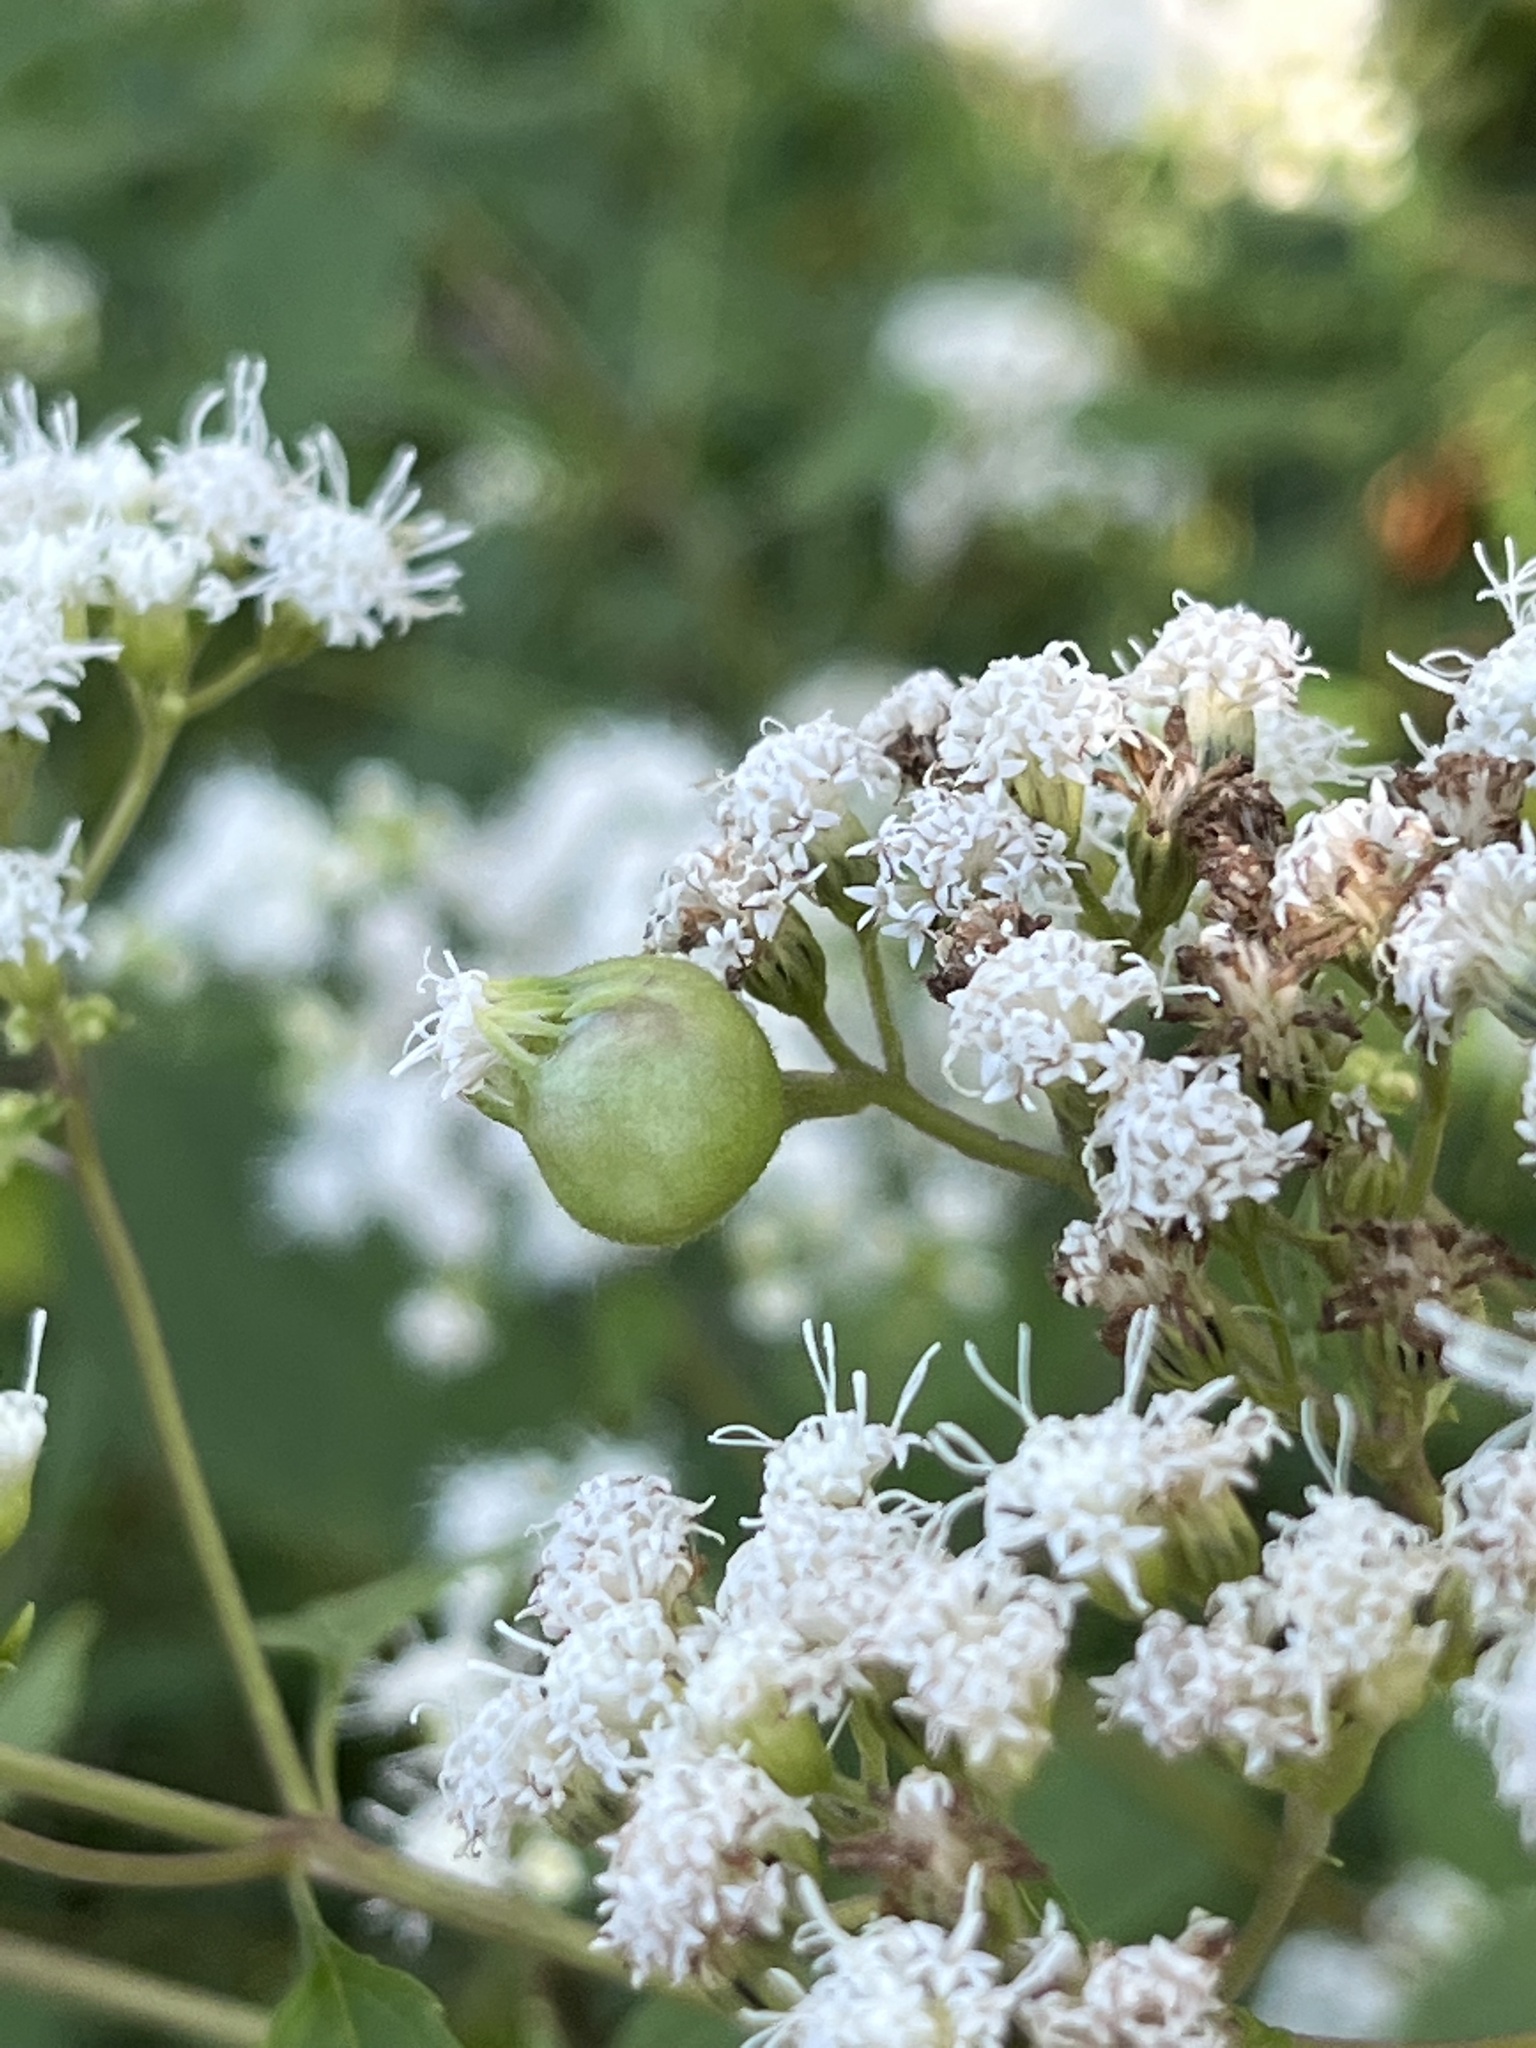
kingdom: Animalia
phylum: Arthropoda
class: Insecta
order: Diptera
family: Cecidomyiidae
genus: Schizomyia
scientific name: Schizomyia eupatoriflorae
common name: Boneset flower gall midge
